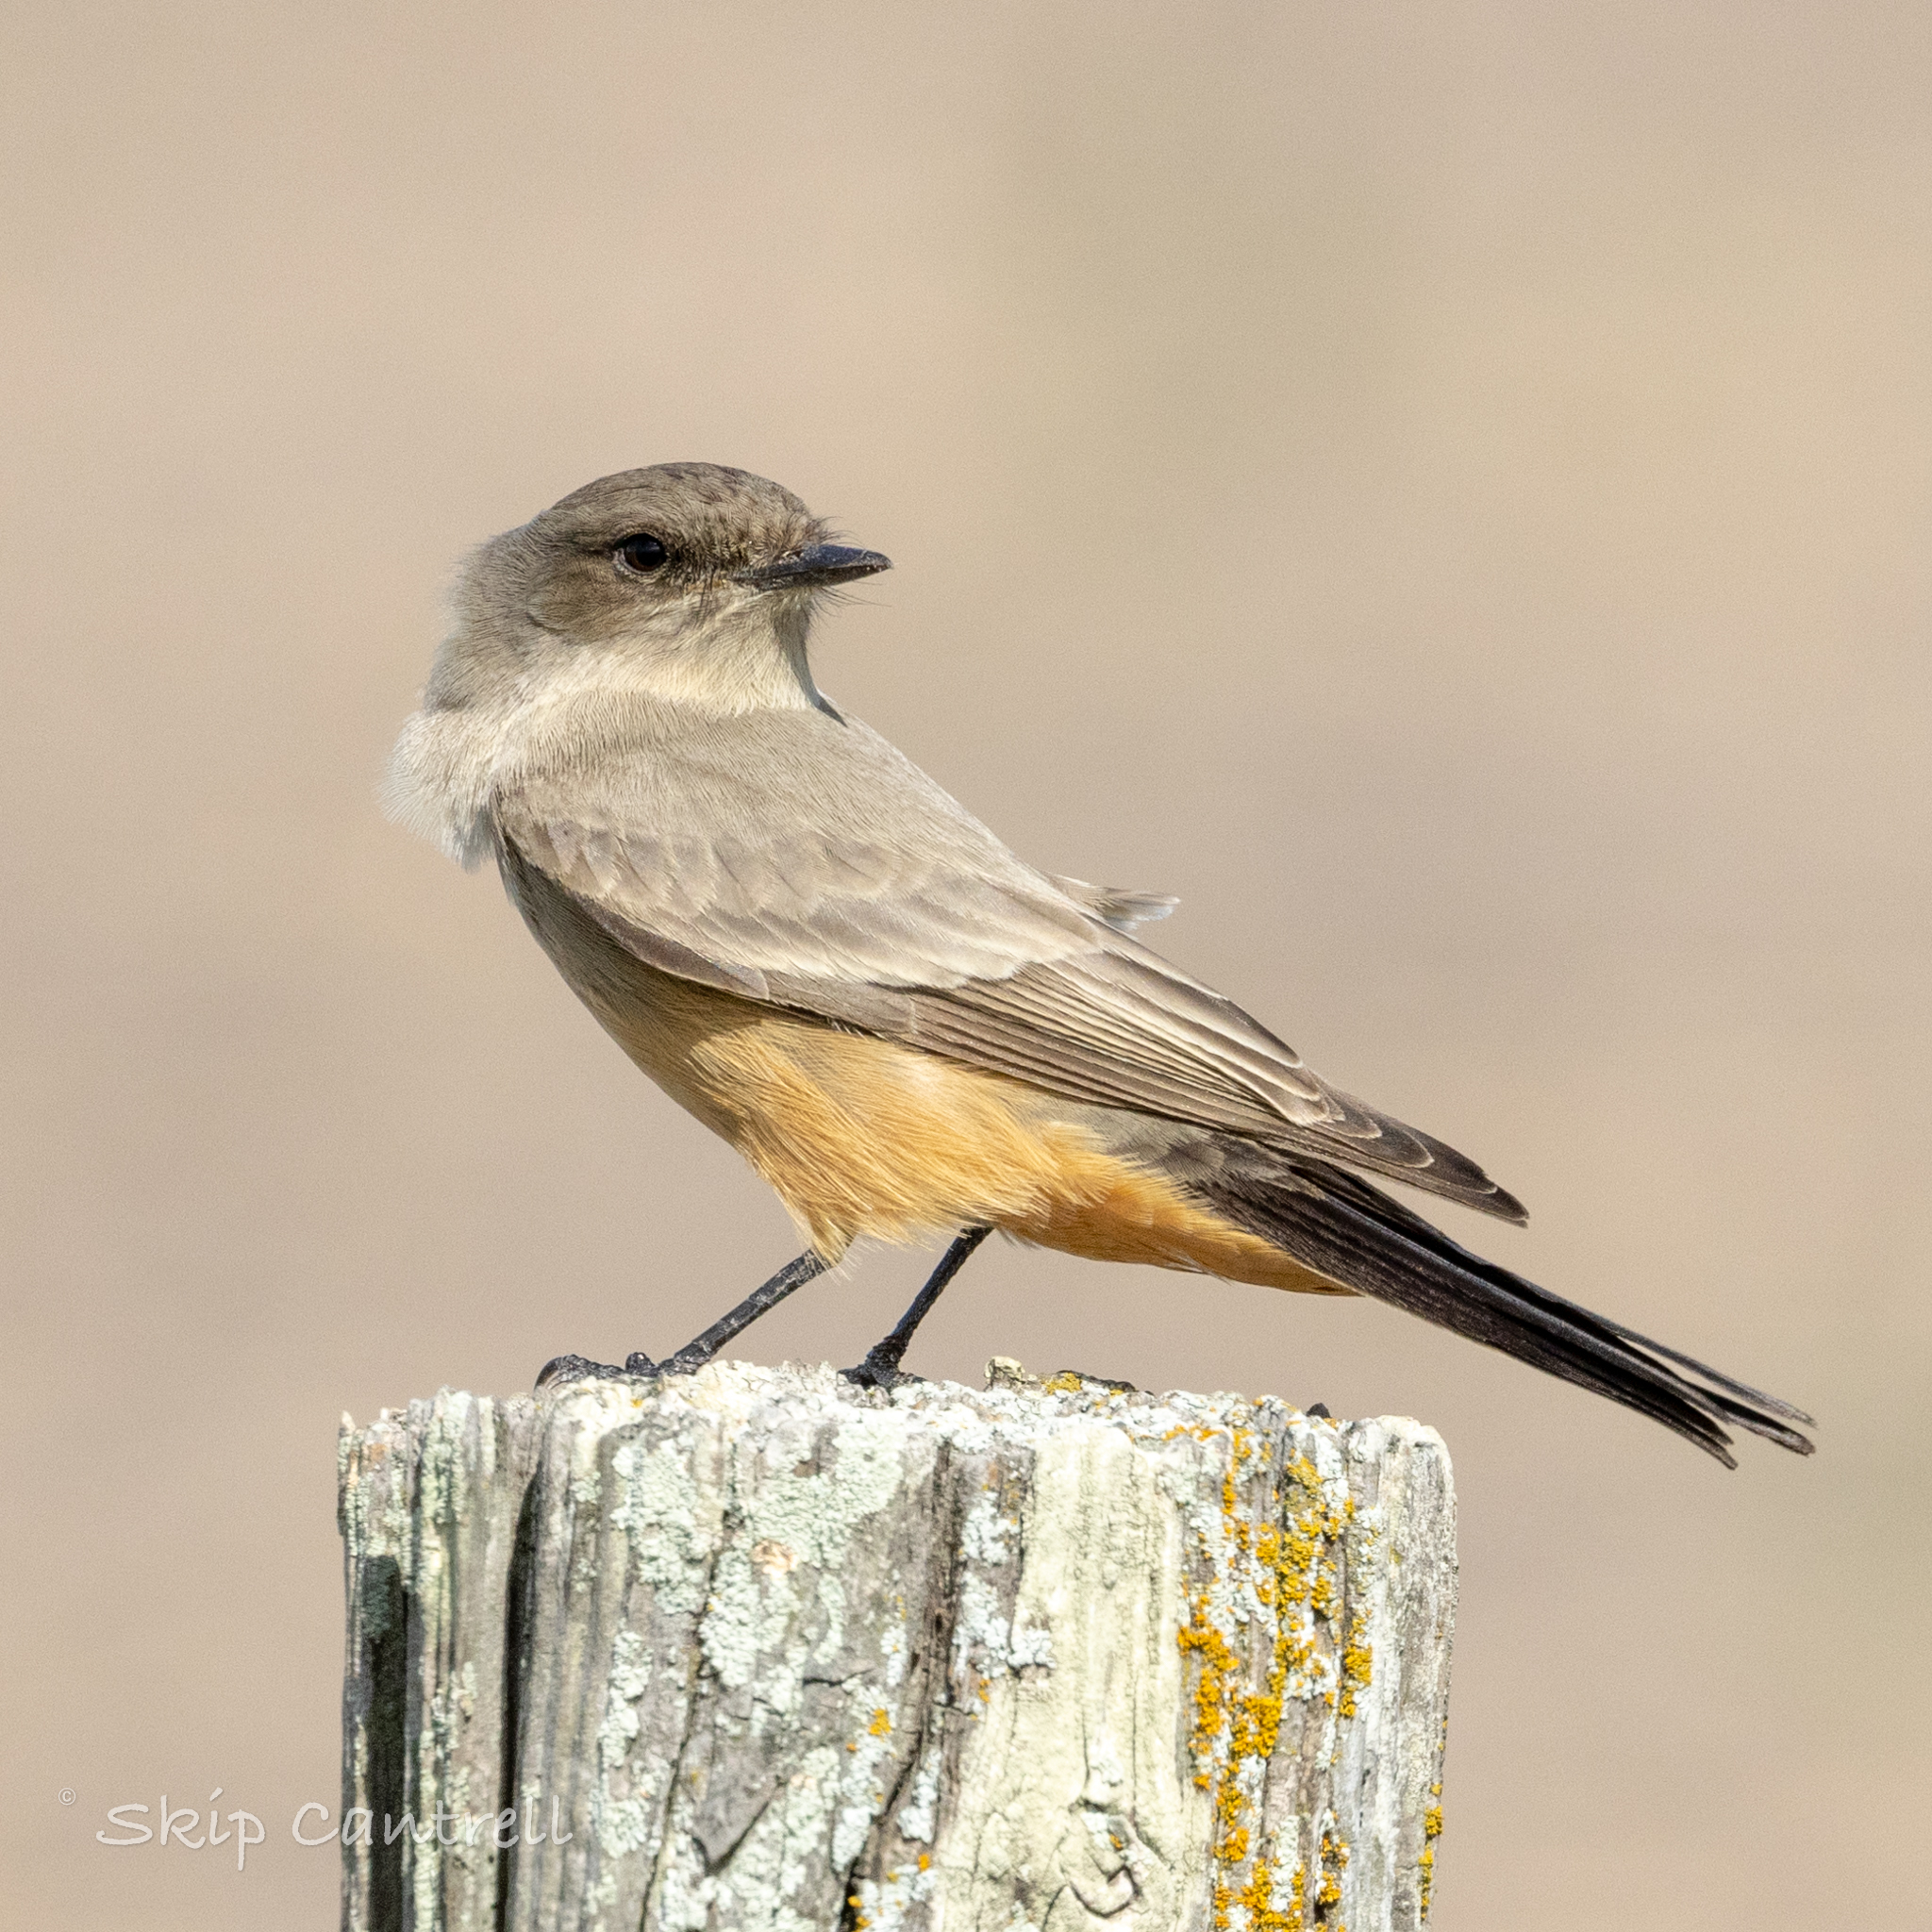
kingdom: Animalia
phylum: Chordata
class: Aves
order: Passeriformes
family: Tyrannidae
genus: Sayornis
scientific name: Sayornis saya
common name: Say's phoebe
